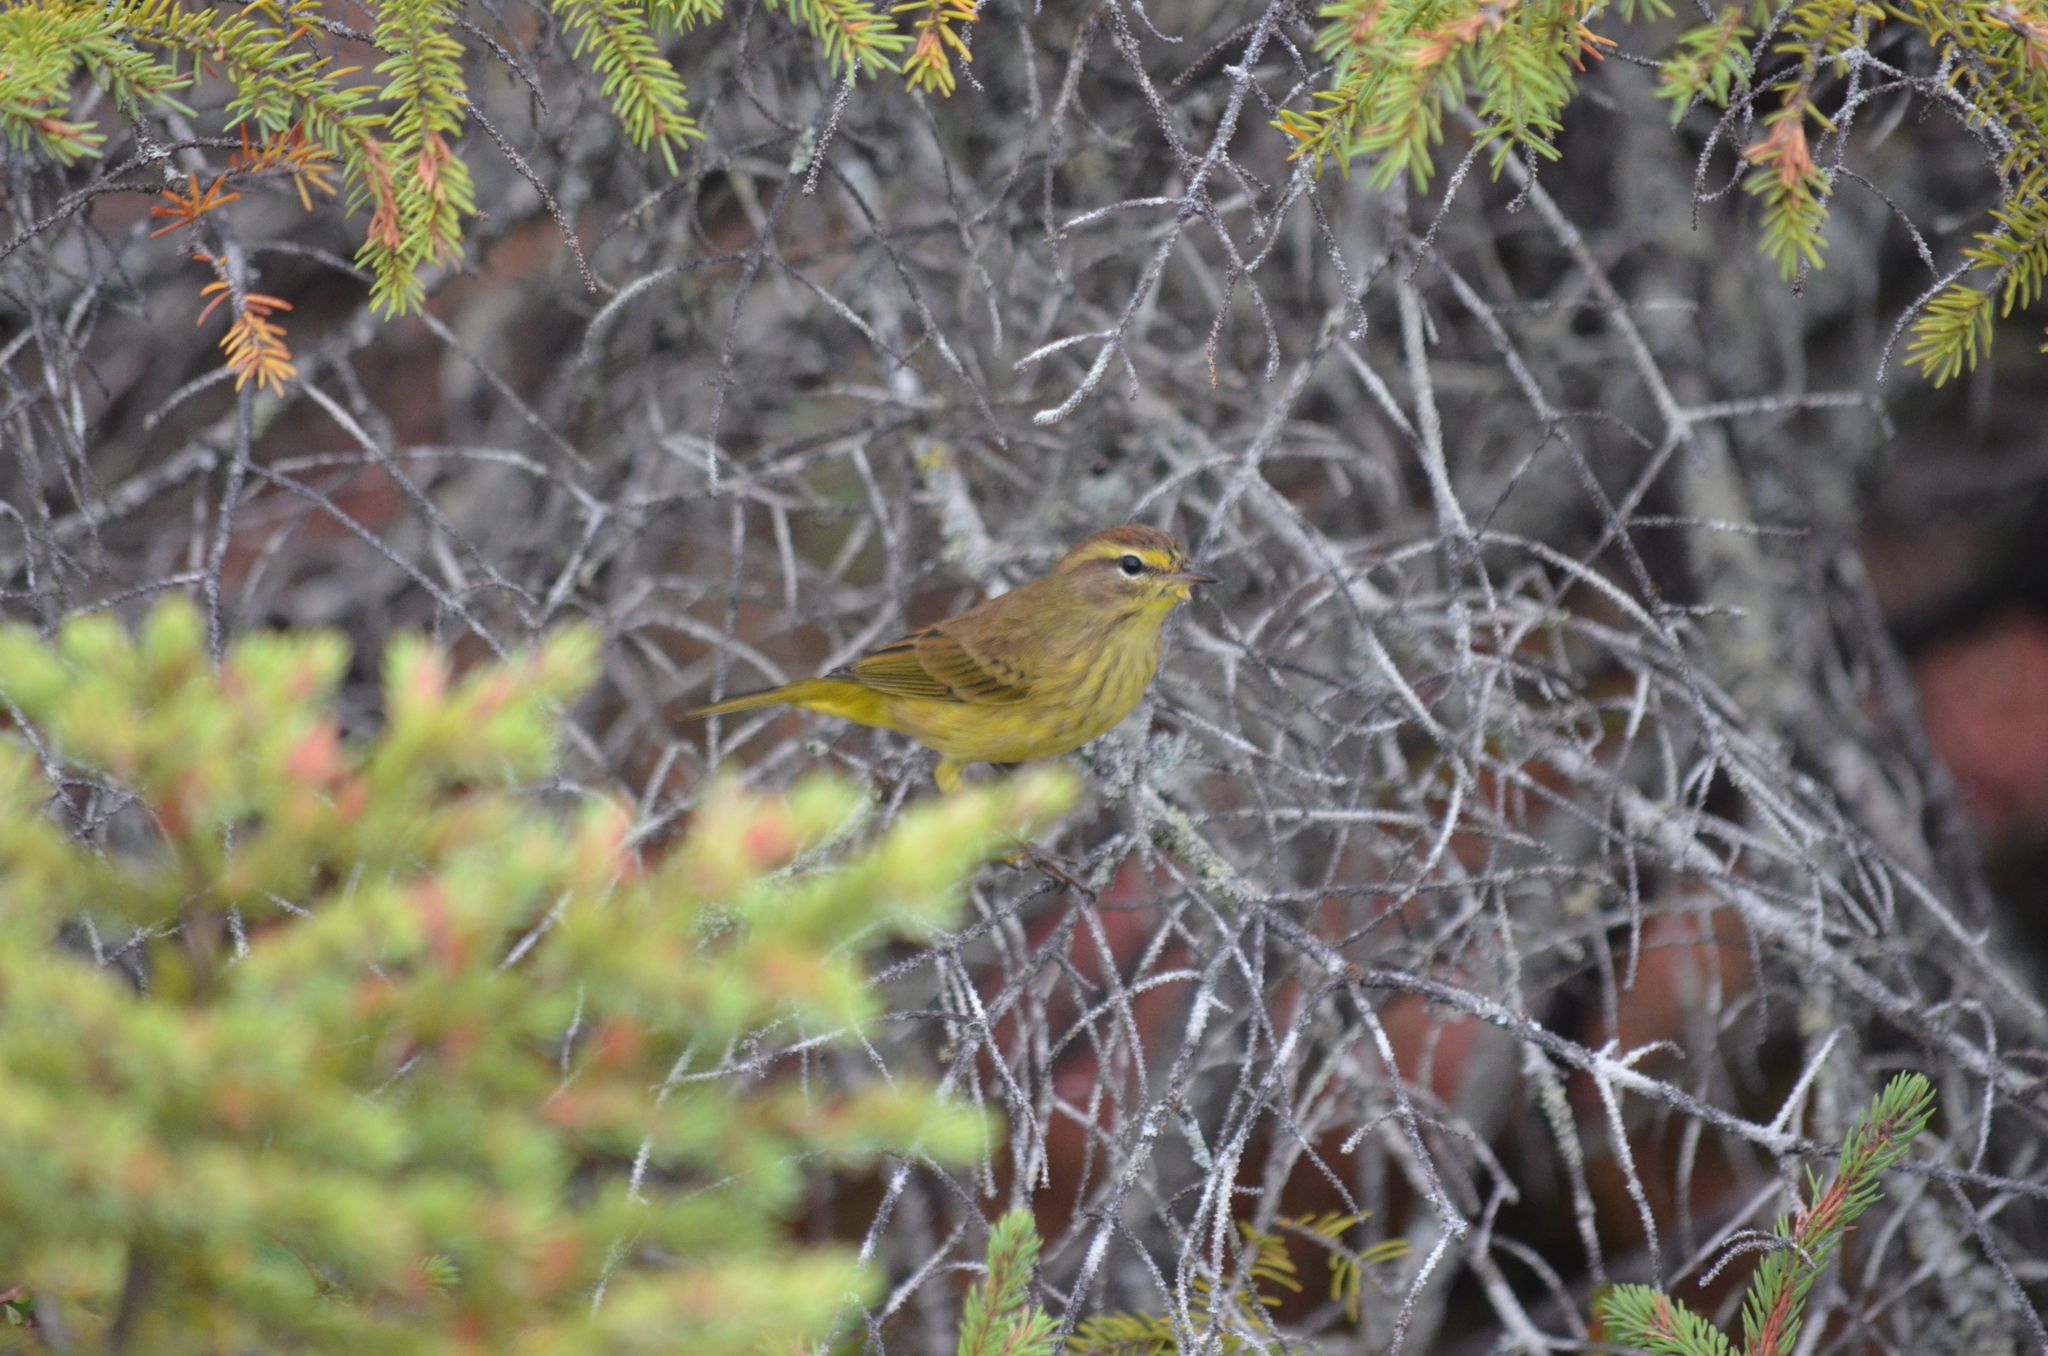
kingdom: Animalia
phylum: Chordata
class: Aves
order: Passeriformes
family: Parulidae
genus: Setophaga
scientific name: Setophaga palmarum
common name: Palm warbler
